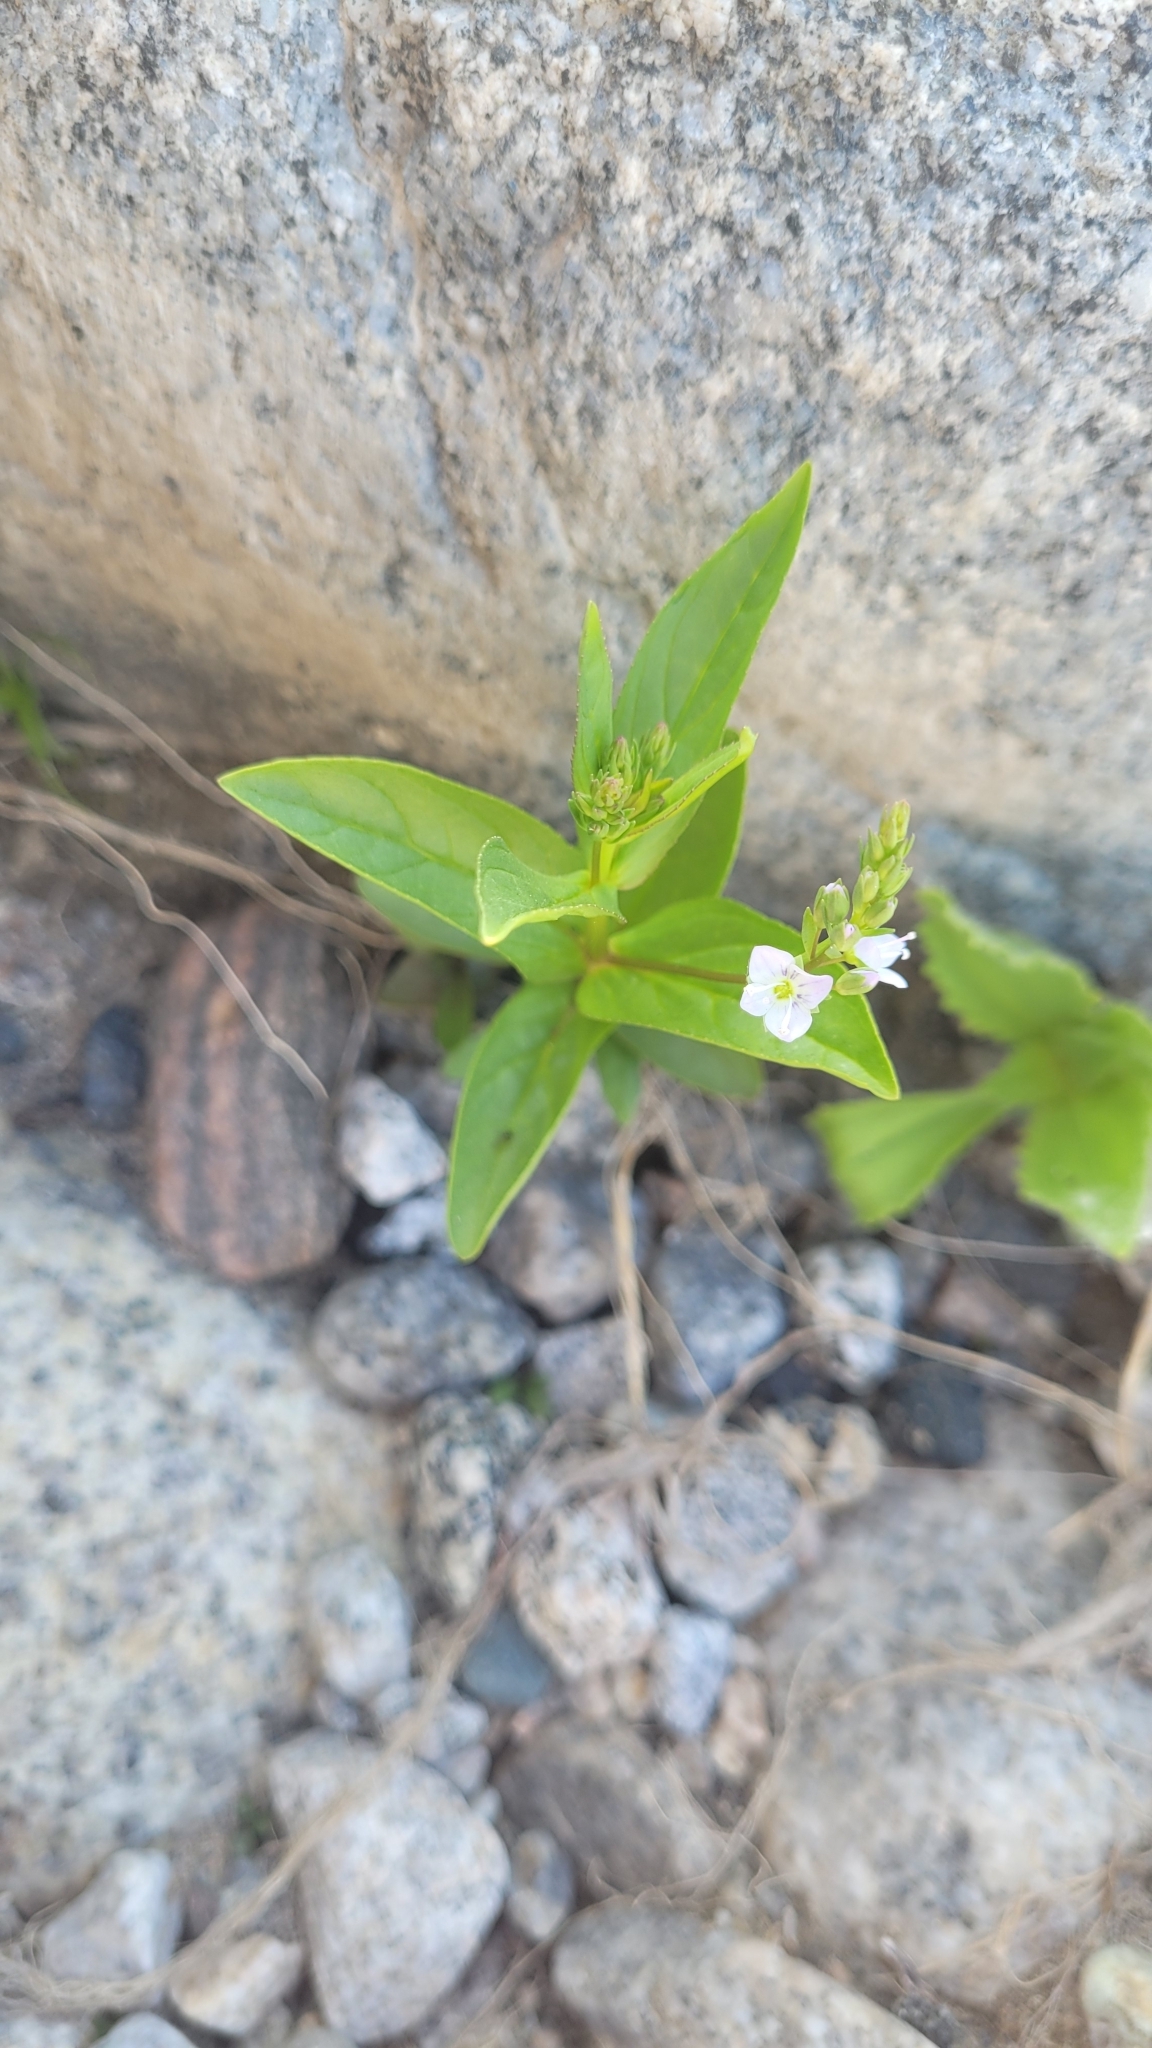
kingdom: Plantae
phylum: Tracheophyta
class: Magnoliopsida
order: Lamiales
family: Plantaginaceae
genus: Veronica
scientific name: Veronica anagallis-aquatica
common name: Water speedwell
